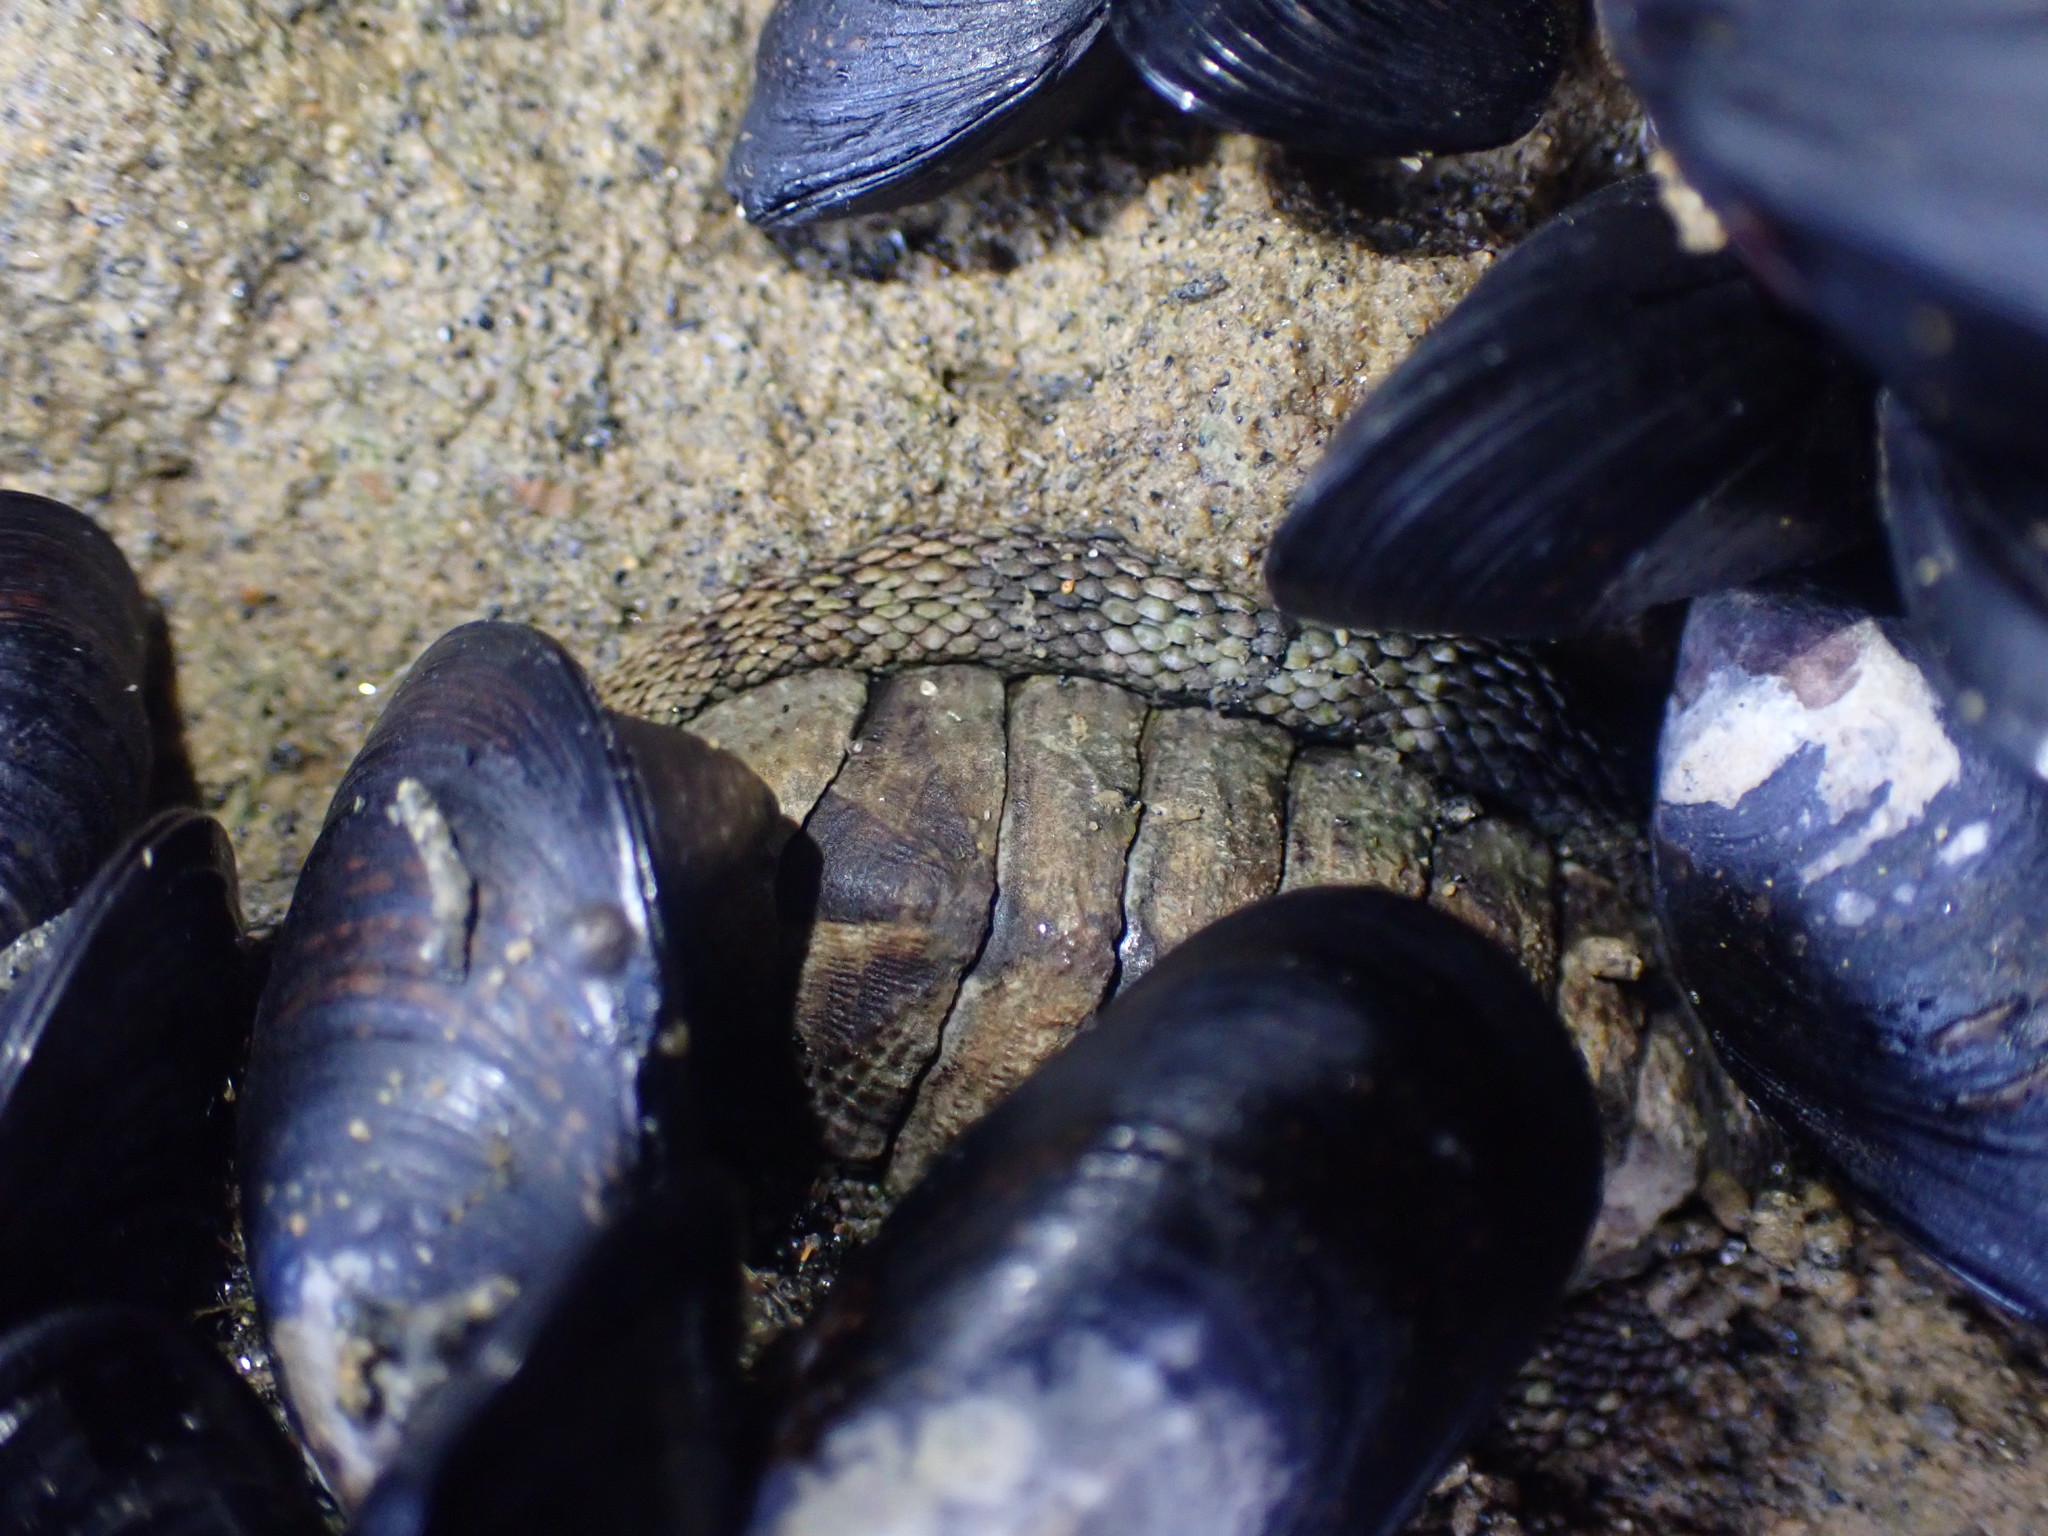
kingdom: Animalia
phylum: Mollusca
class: Polyplacophora
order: Chitonida
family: Chitonidae
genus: Sypharochiton
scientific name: Sypharochiton pelliserpentis
